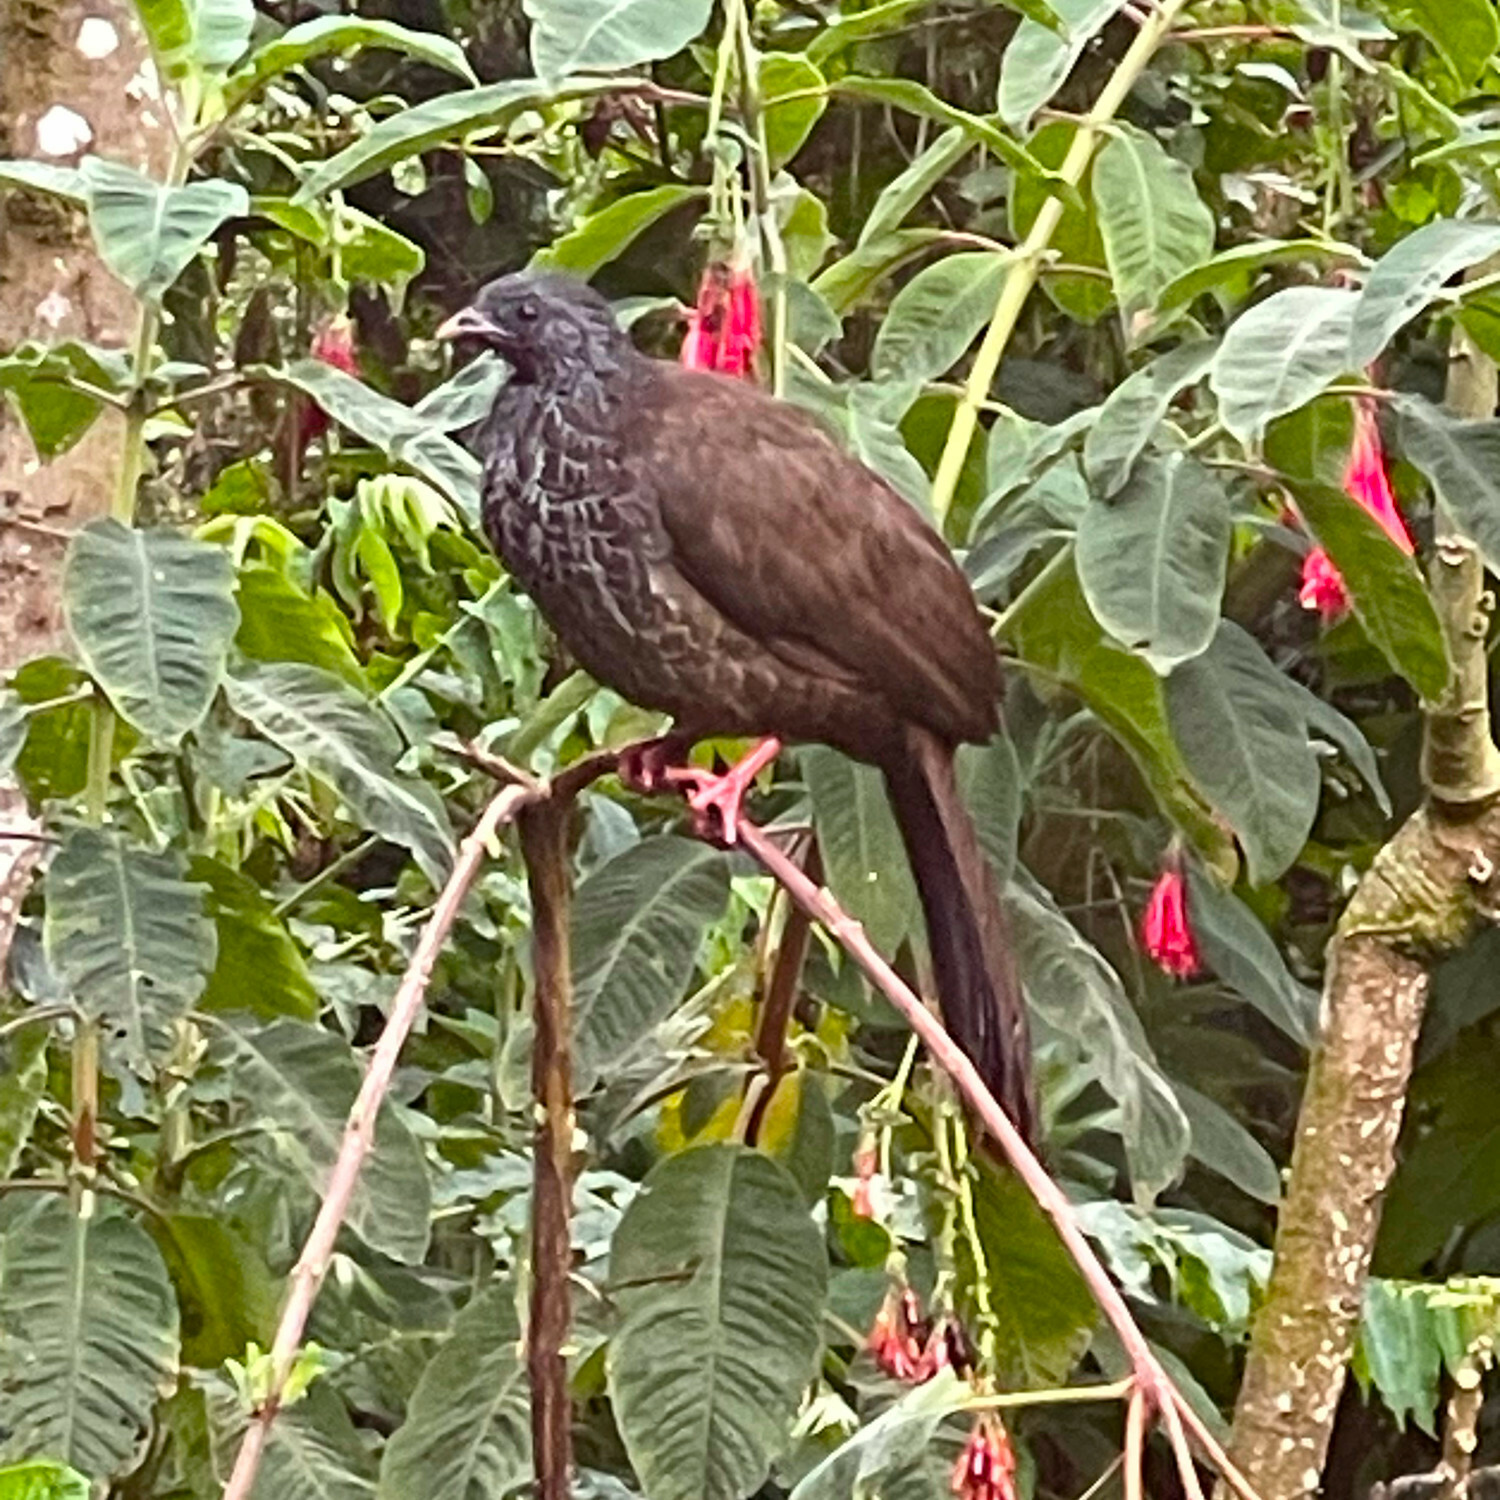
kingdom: Animalia
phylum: Chordata
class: Aves
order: Galliformes
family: Cracidae
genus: Penelope
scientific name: Penelope montagnii
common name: Andean guan
